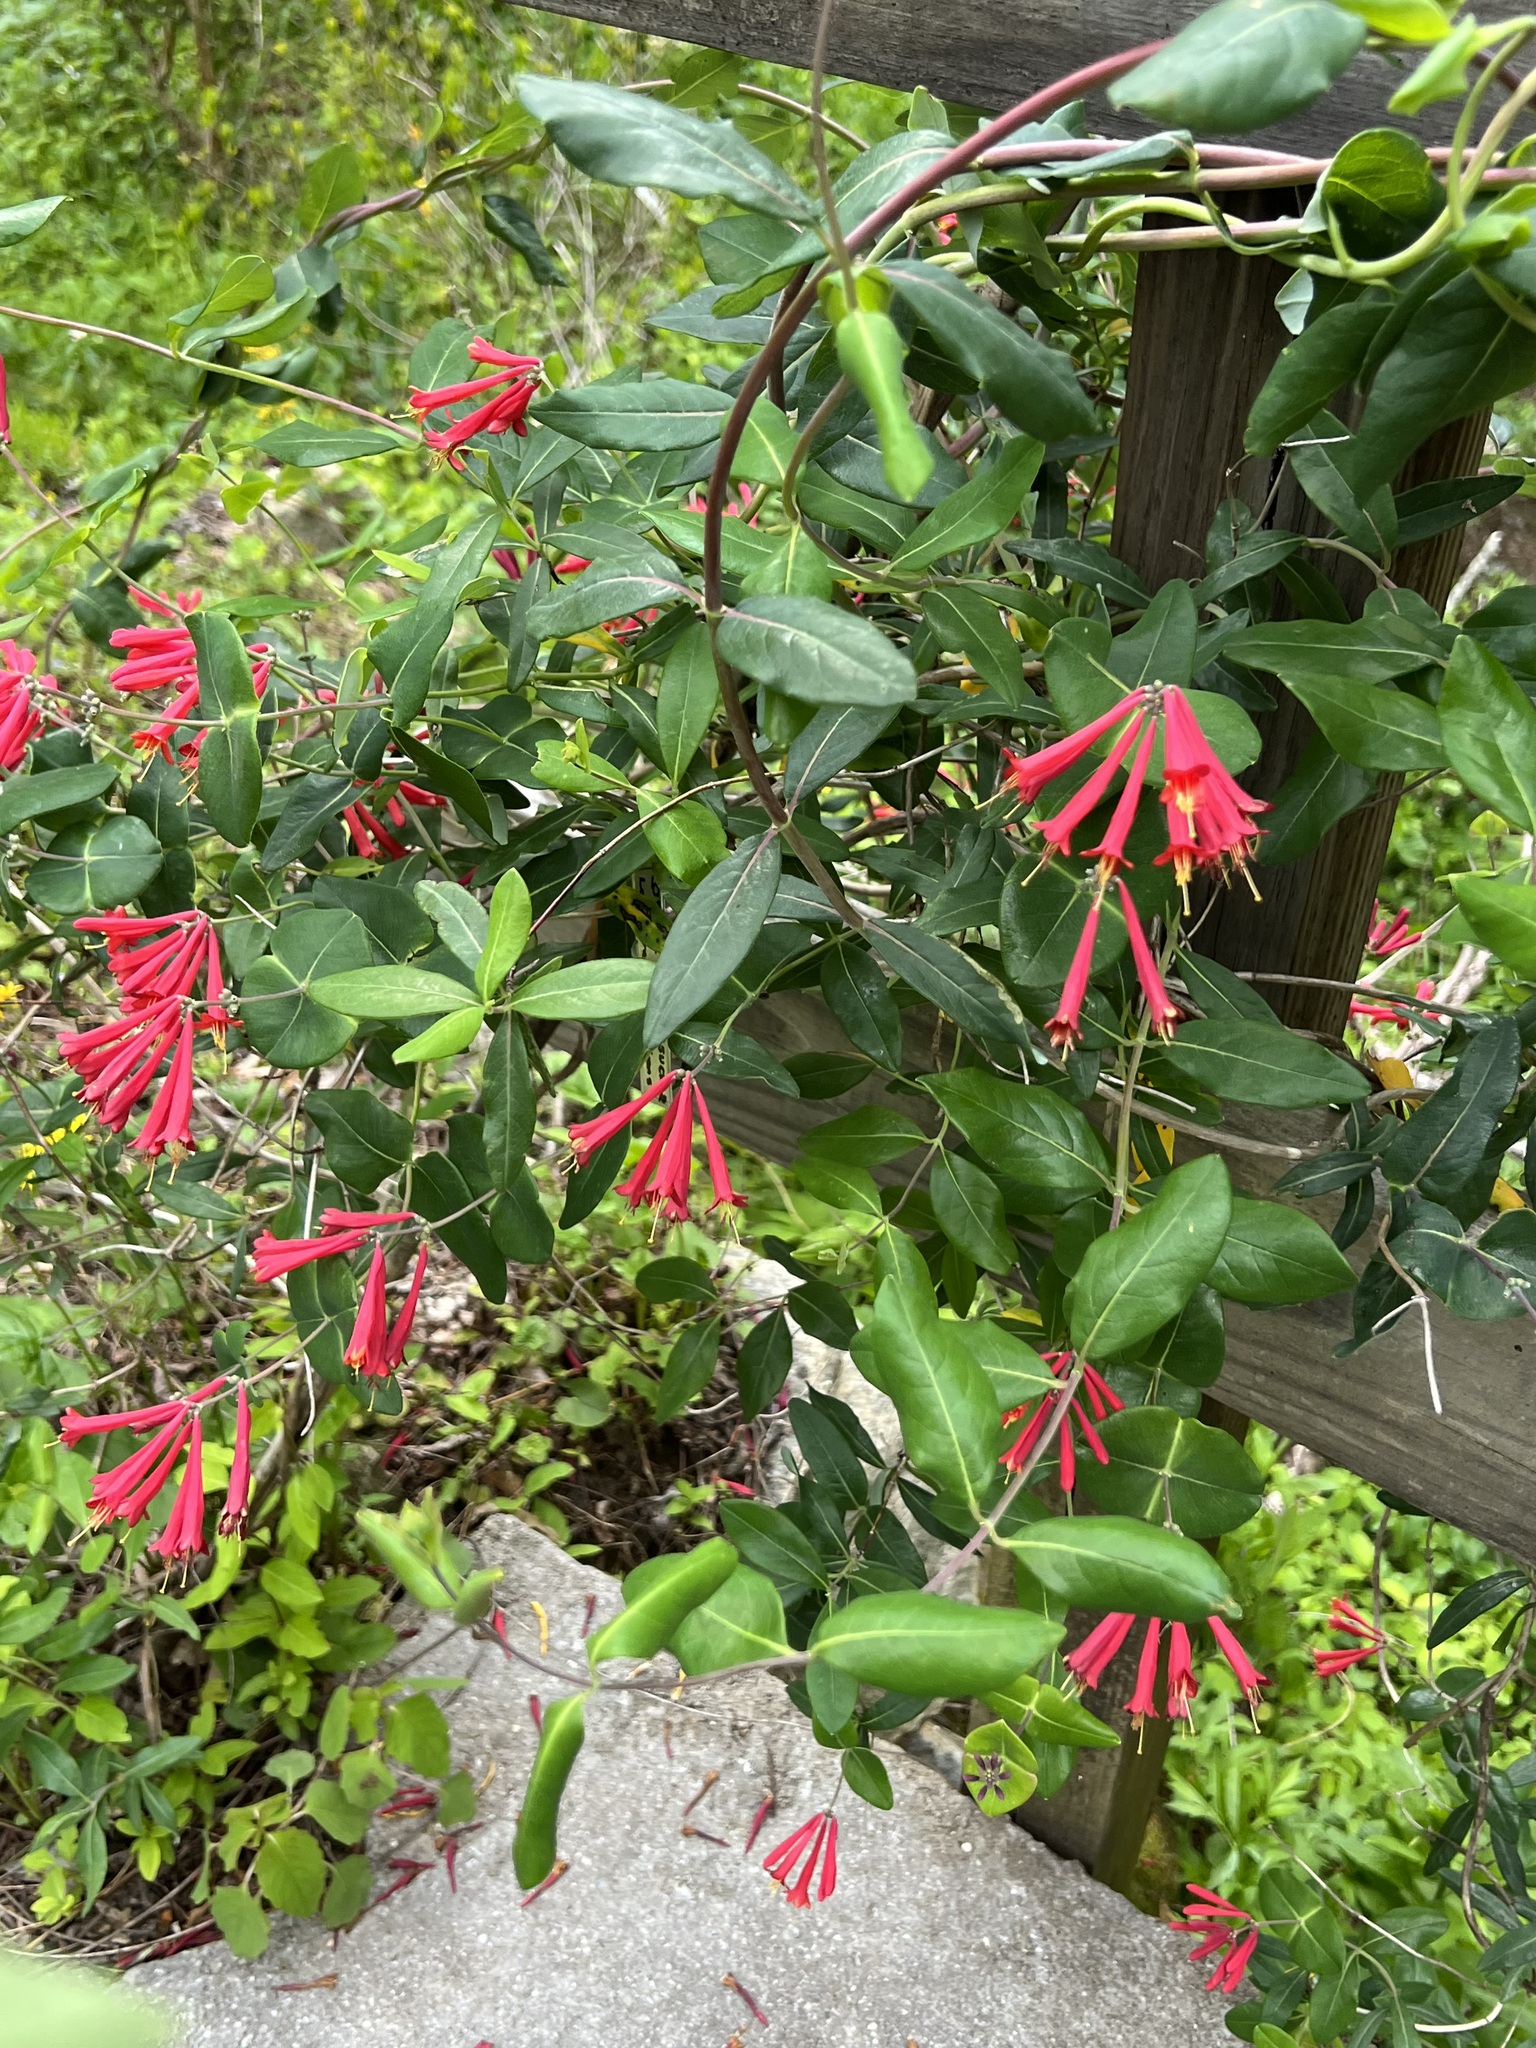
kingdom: Plantae
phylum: Tracheophyta
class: Magnoliopsida
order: Dipsacales
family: Caprifoliaceae
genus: Lonicera
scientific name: Lonicera sempervirens
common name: Coral honeysuckle
